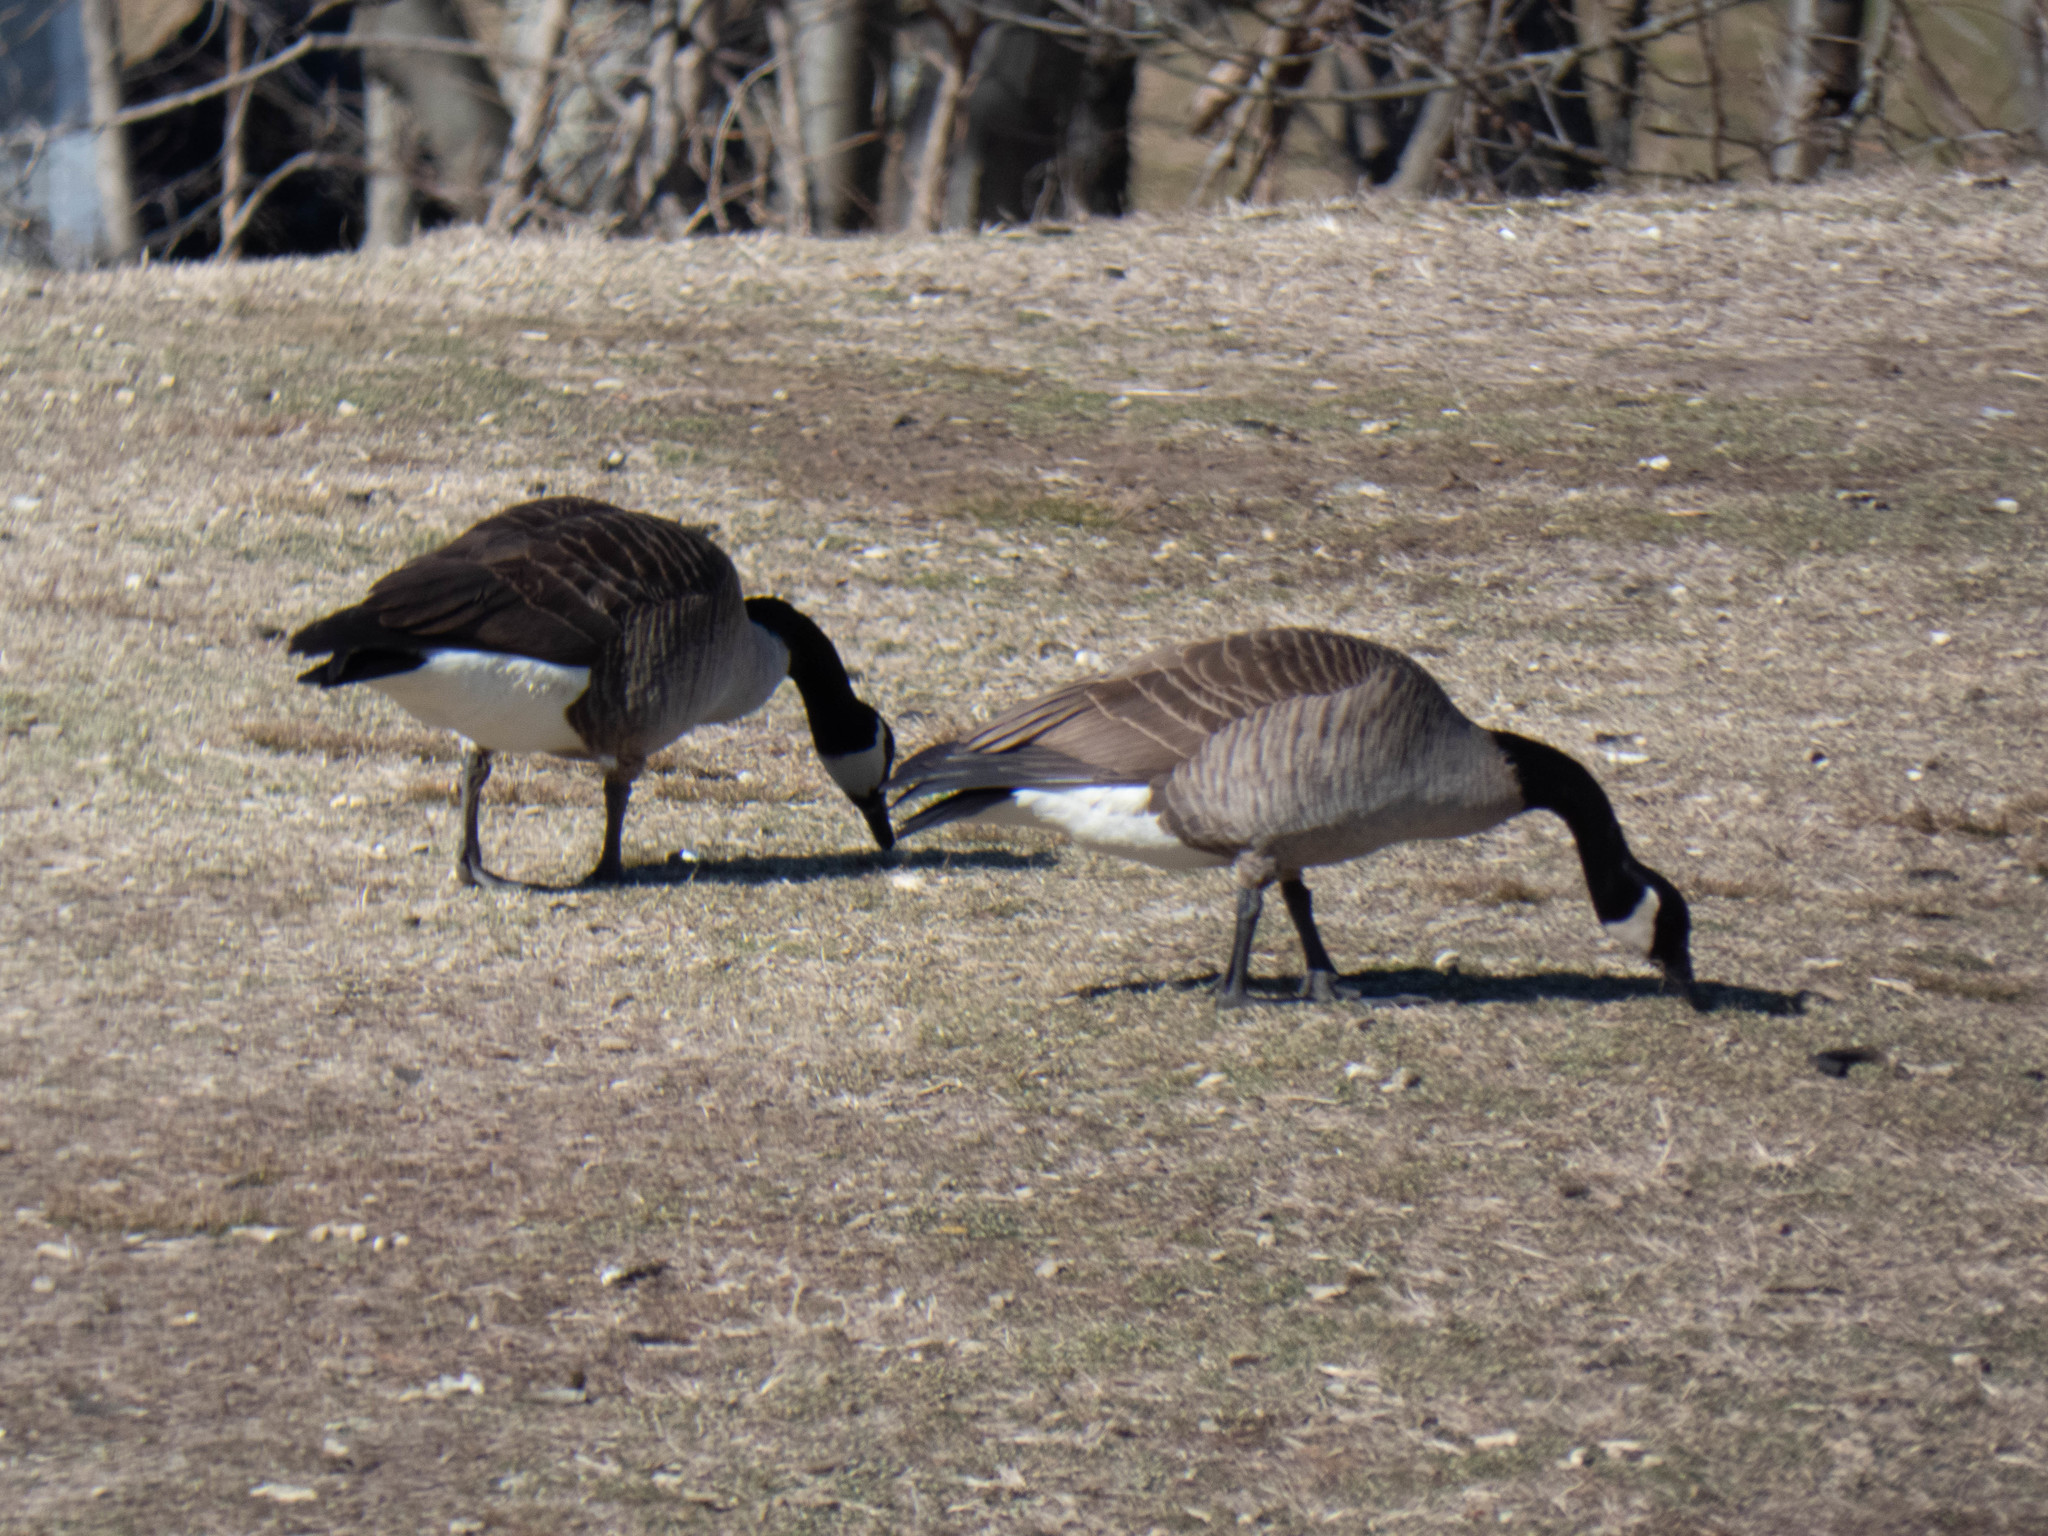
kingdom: Animalia
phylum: Chordata
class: Aves
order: Anseriformes
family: Anatidae
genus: Branta
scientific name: Branta canadensis
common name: Canada goose
